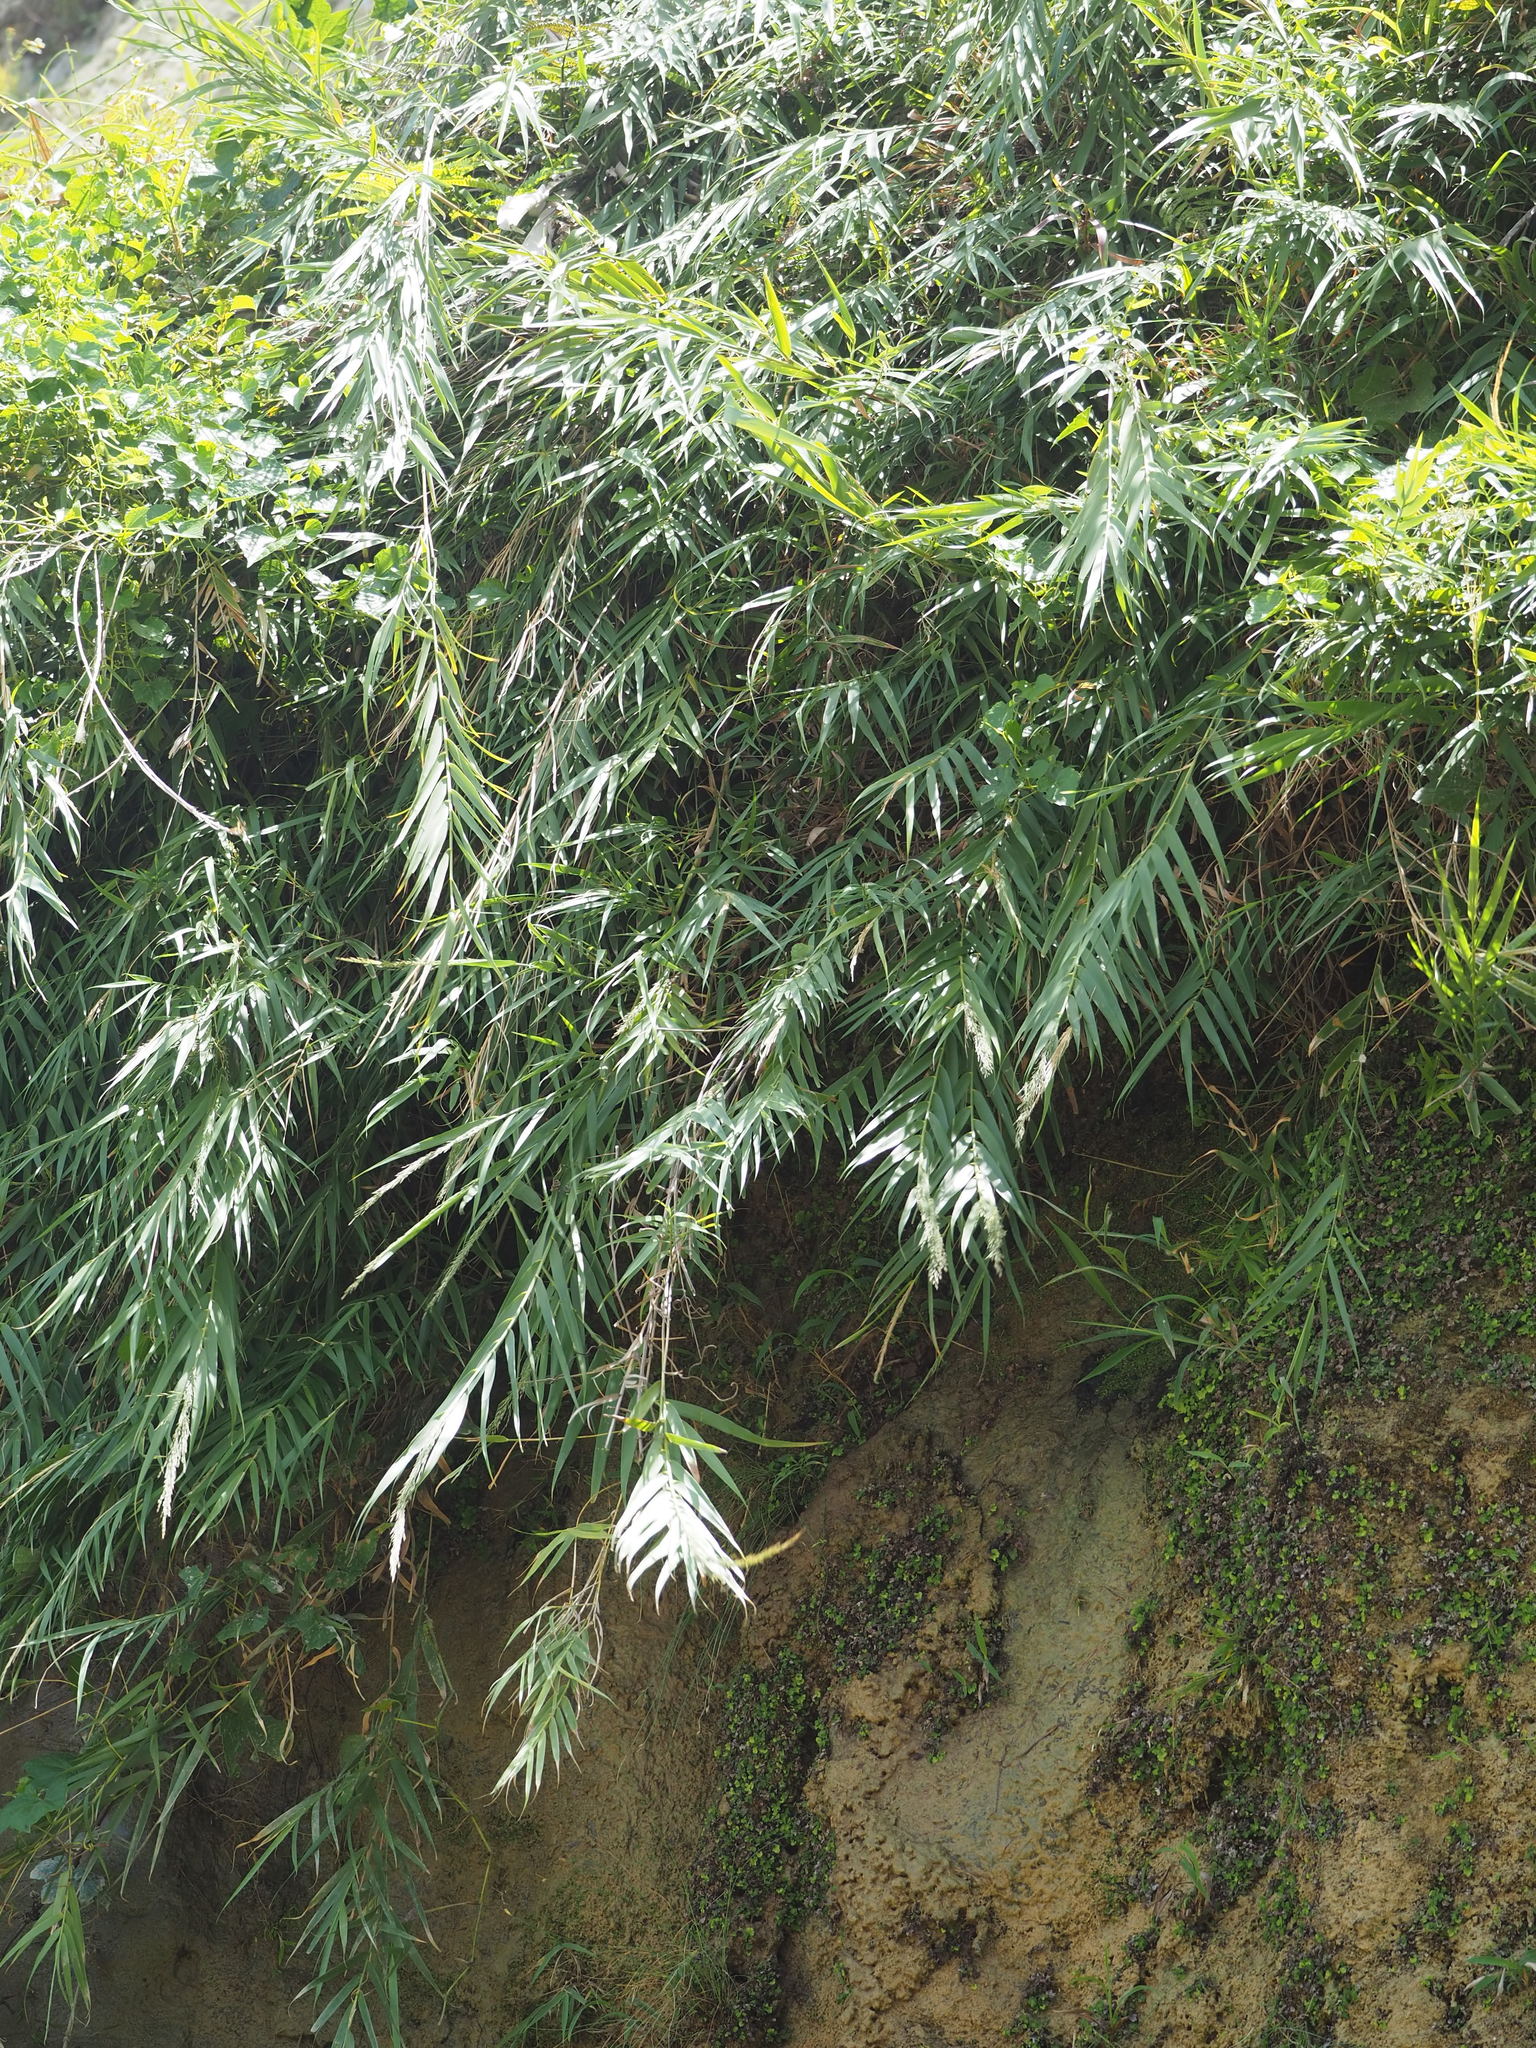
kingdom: Plantae
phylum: Tracheophyta
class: Liliopsida
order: Poales
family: Poaceae
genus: Arundo
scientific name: Arundo formosana
